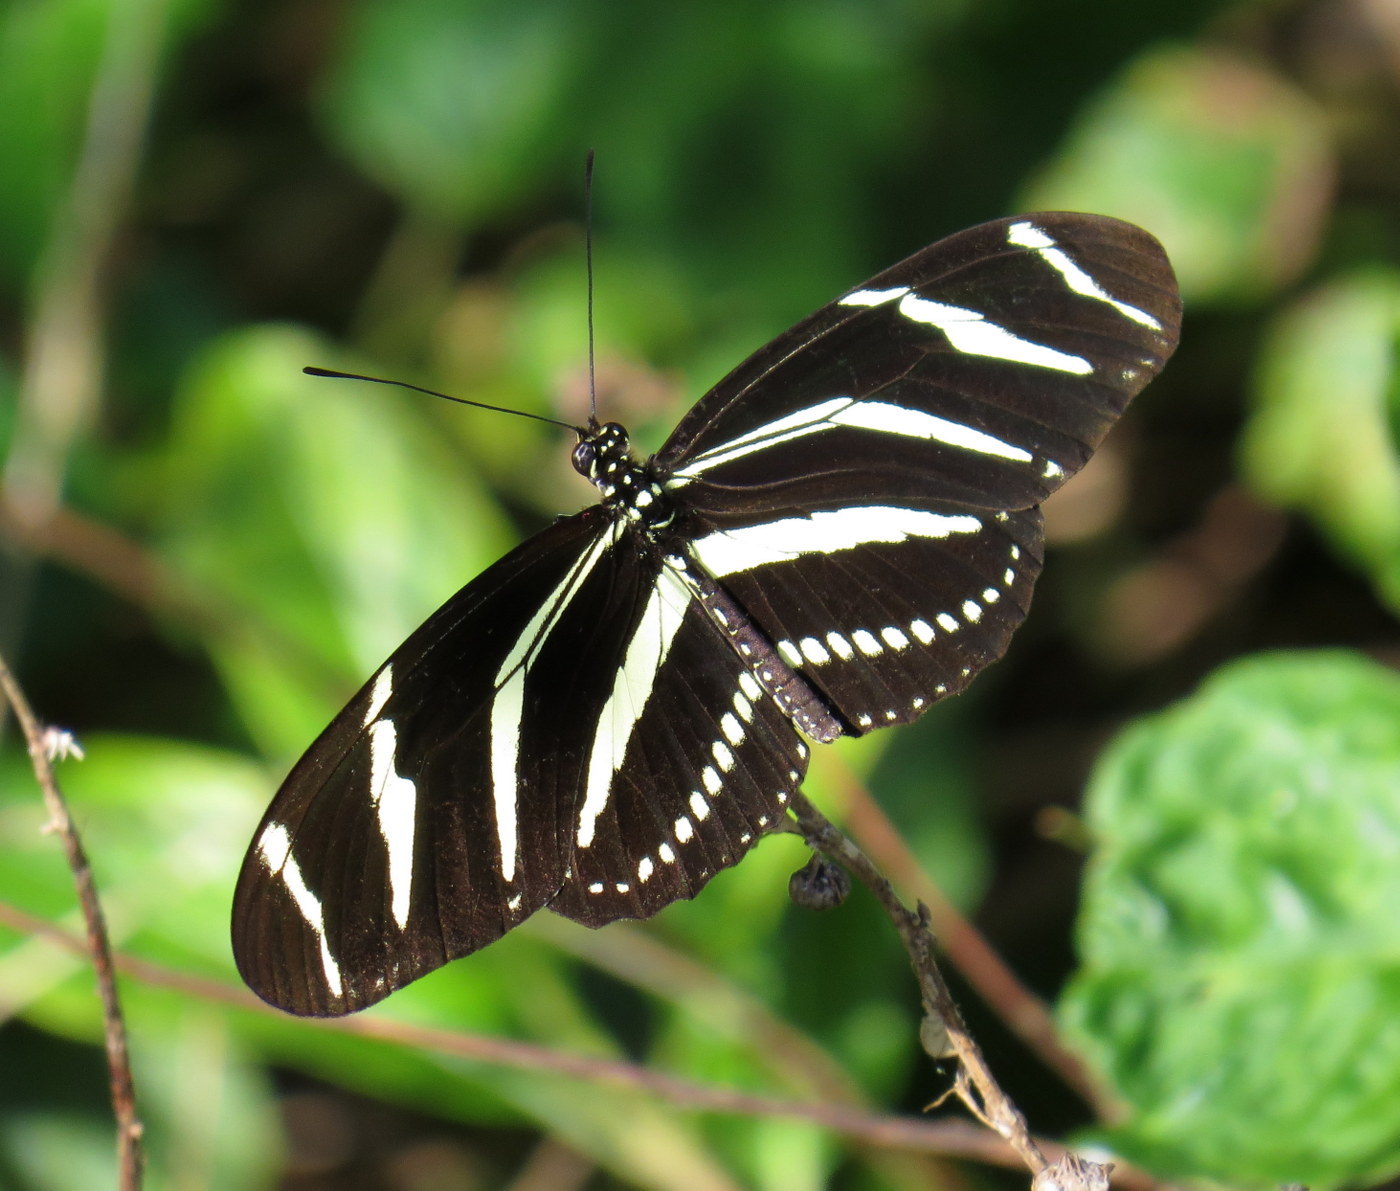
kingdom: Animalia
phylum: Arthropoda
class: Insecta
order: Lepidoptera
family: Nymphalidae
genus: Heliconius
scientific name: Heliconius charithonia
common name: Zebra long wing
